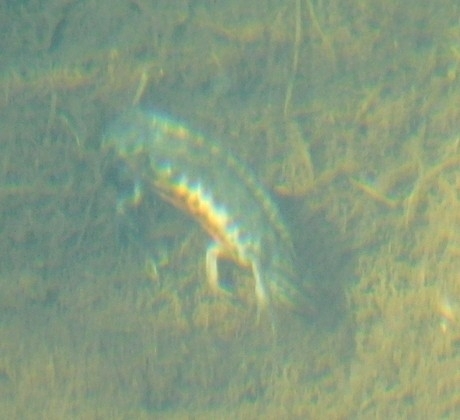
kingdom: Animalia
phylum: Chordata
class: Amphibia
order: Caudata
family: Salamandridae
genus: Lissotriton
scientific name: Lissotriton lantzi
